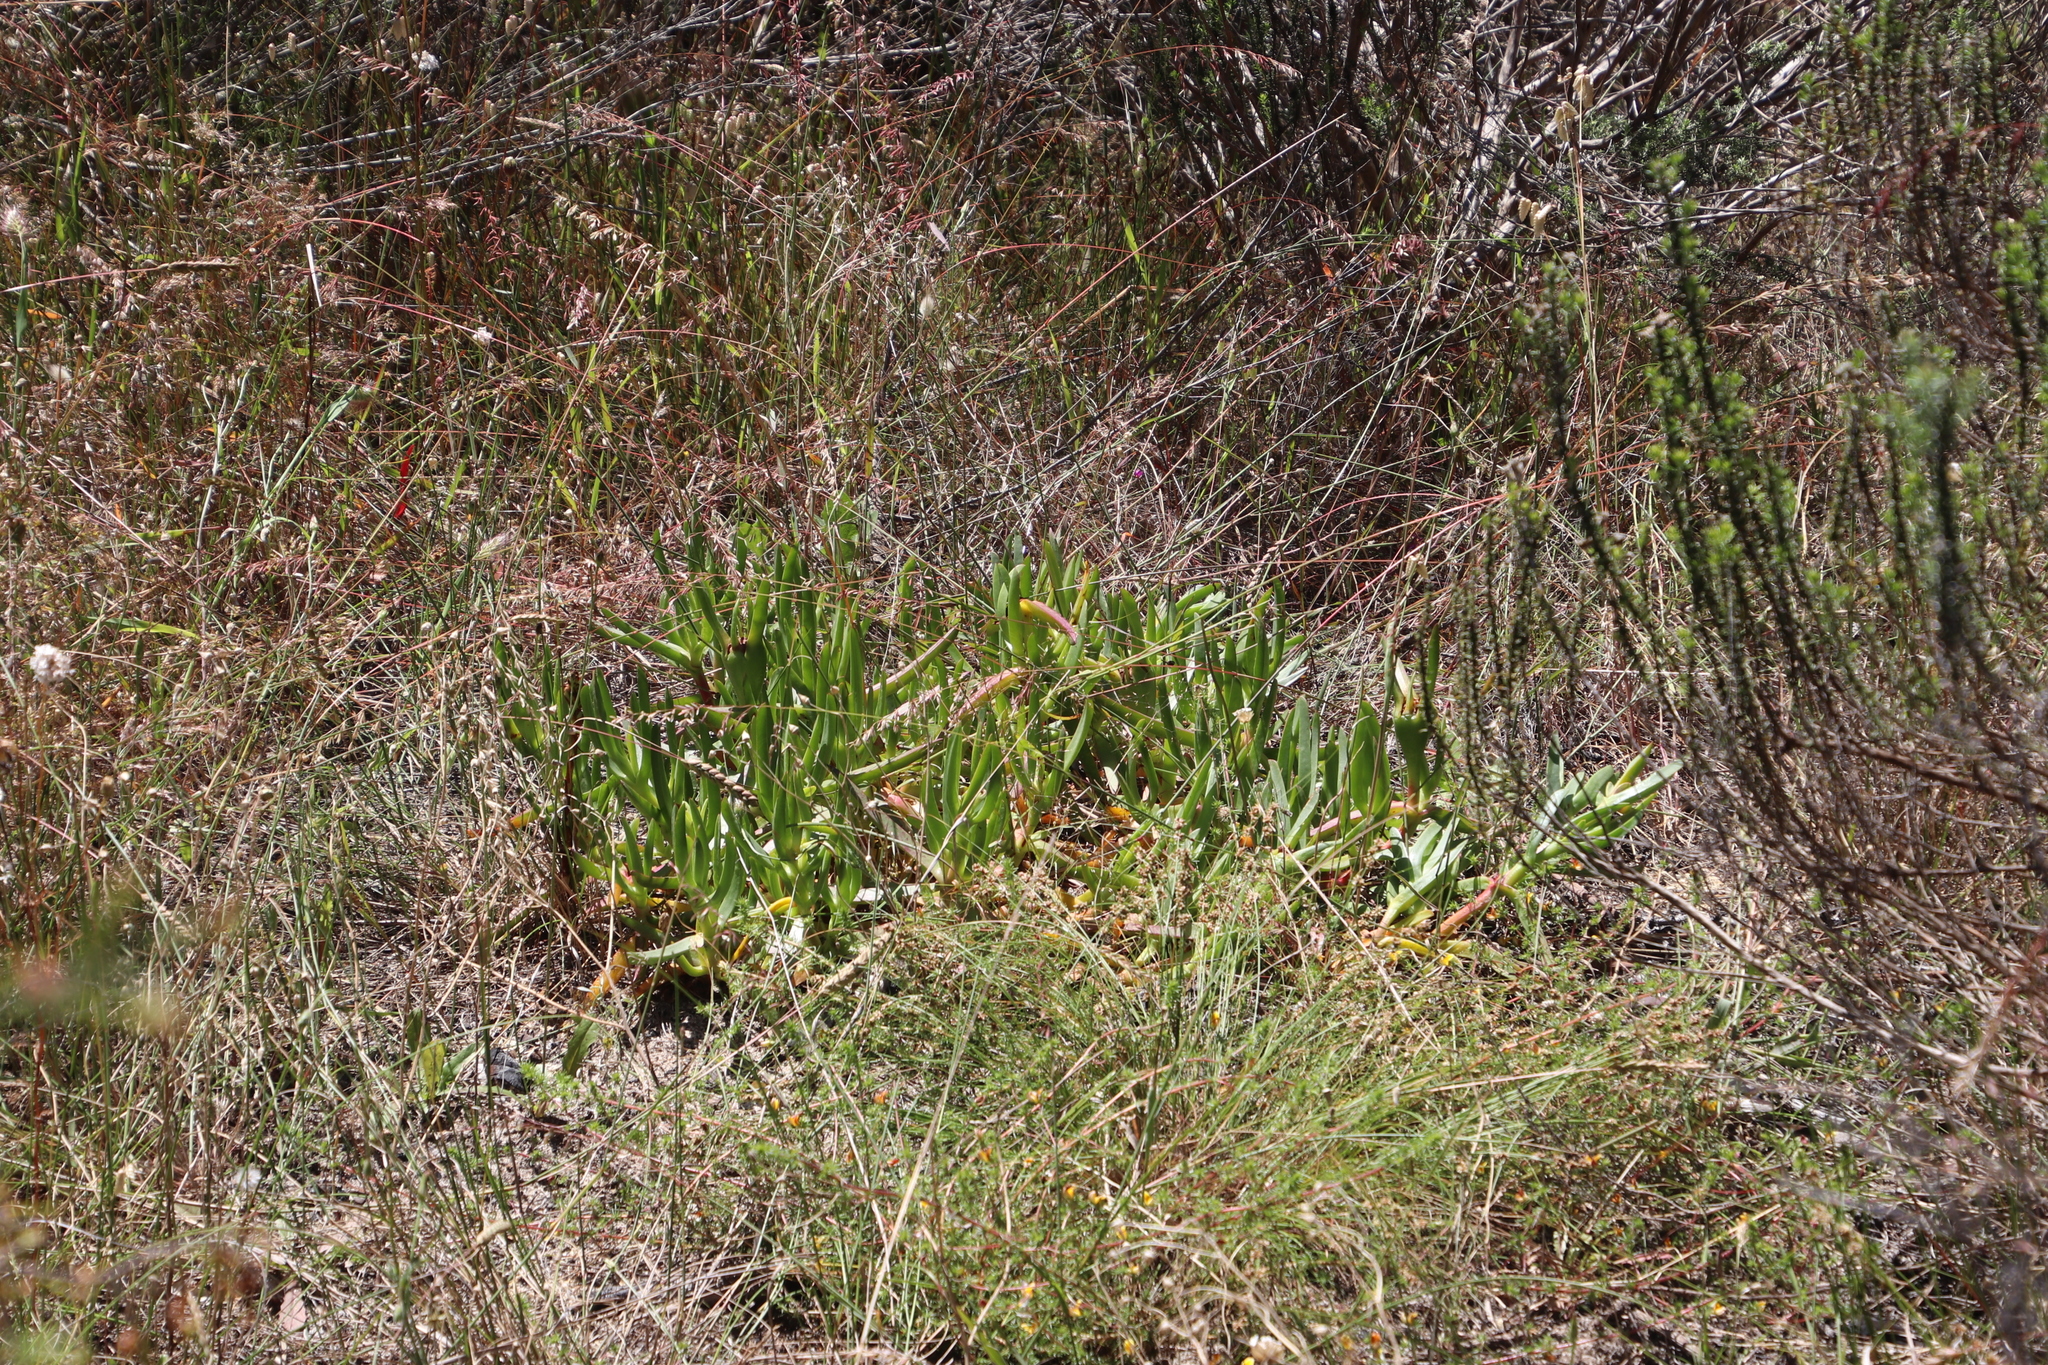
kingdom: Plantae
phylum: Tracheophyta
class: Magnoliopsida
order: Caryophyllales
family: Aizoaceae
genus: Carpobrotus
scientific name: Carpobrotus edulis
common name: Hottentot-fig
